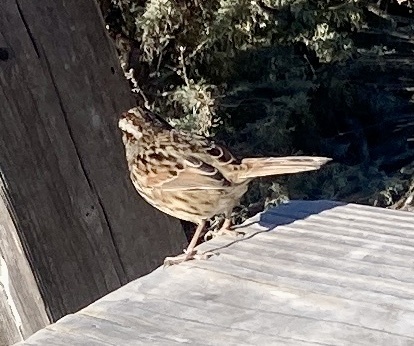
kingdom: Animalia
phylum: Chordata
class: Aves
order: Passeriformes
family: Passerellidae
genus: Melospiza
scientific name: Melospiza melodia
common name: Song sparrow
